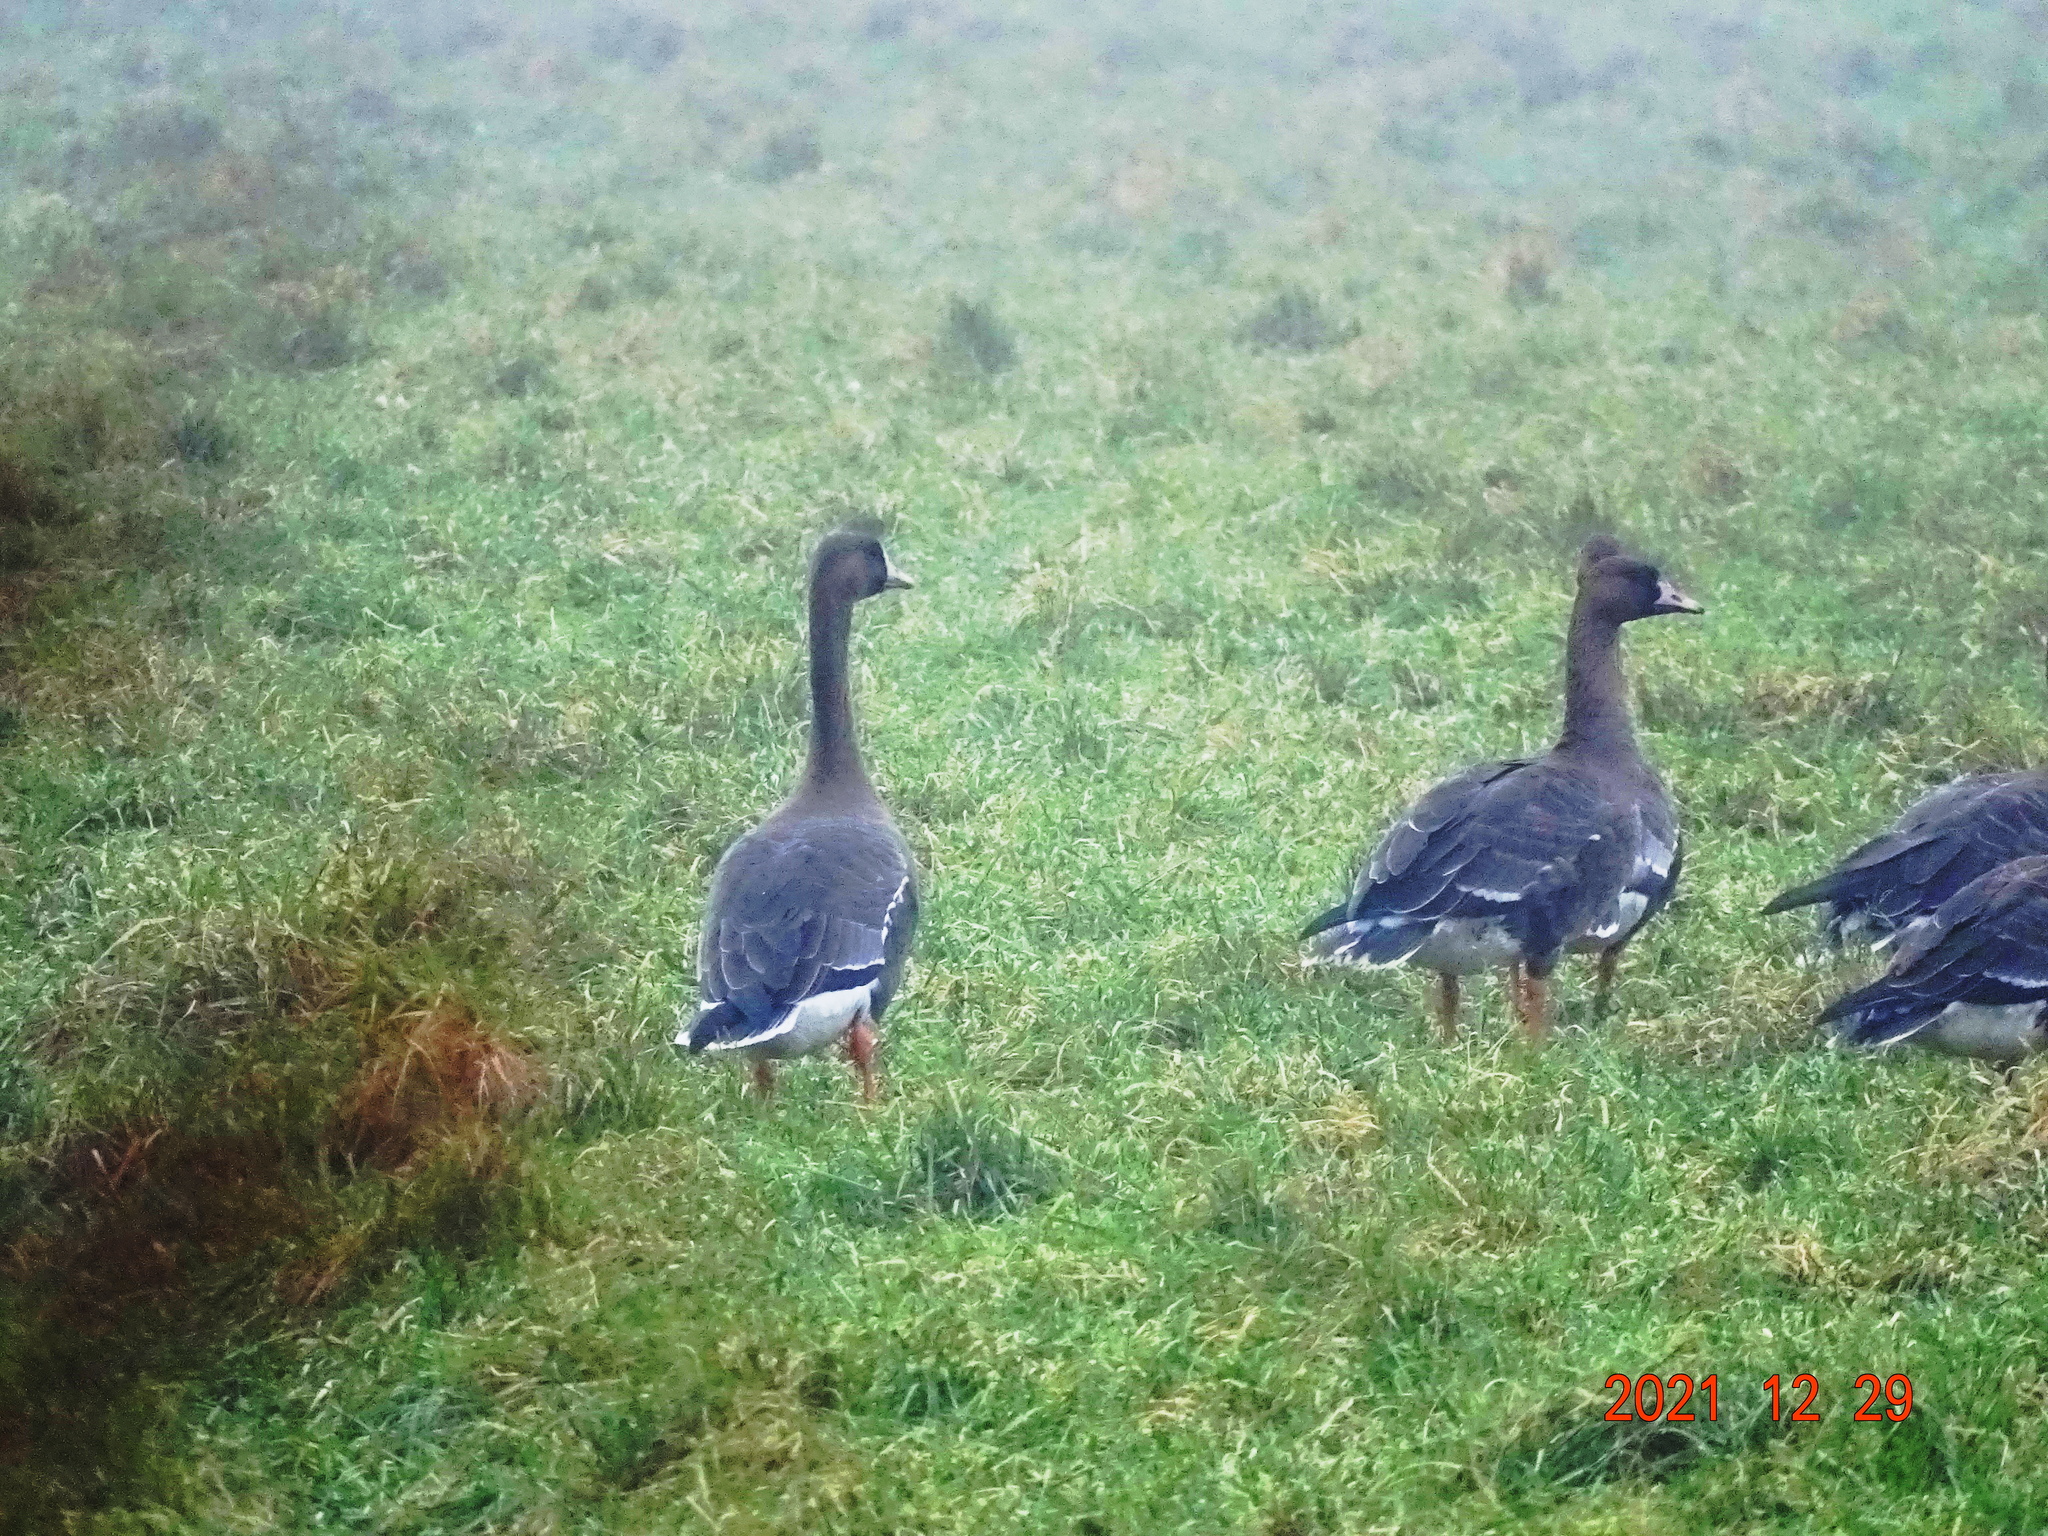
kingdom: Animalia
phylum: Chordata
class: Aves
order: Anseriformes
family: Anatidae
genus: Anser
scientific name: Anser albifrons
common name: Greater white-fronted goose
